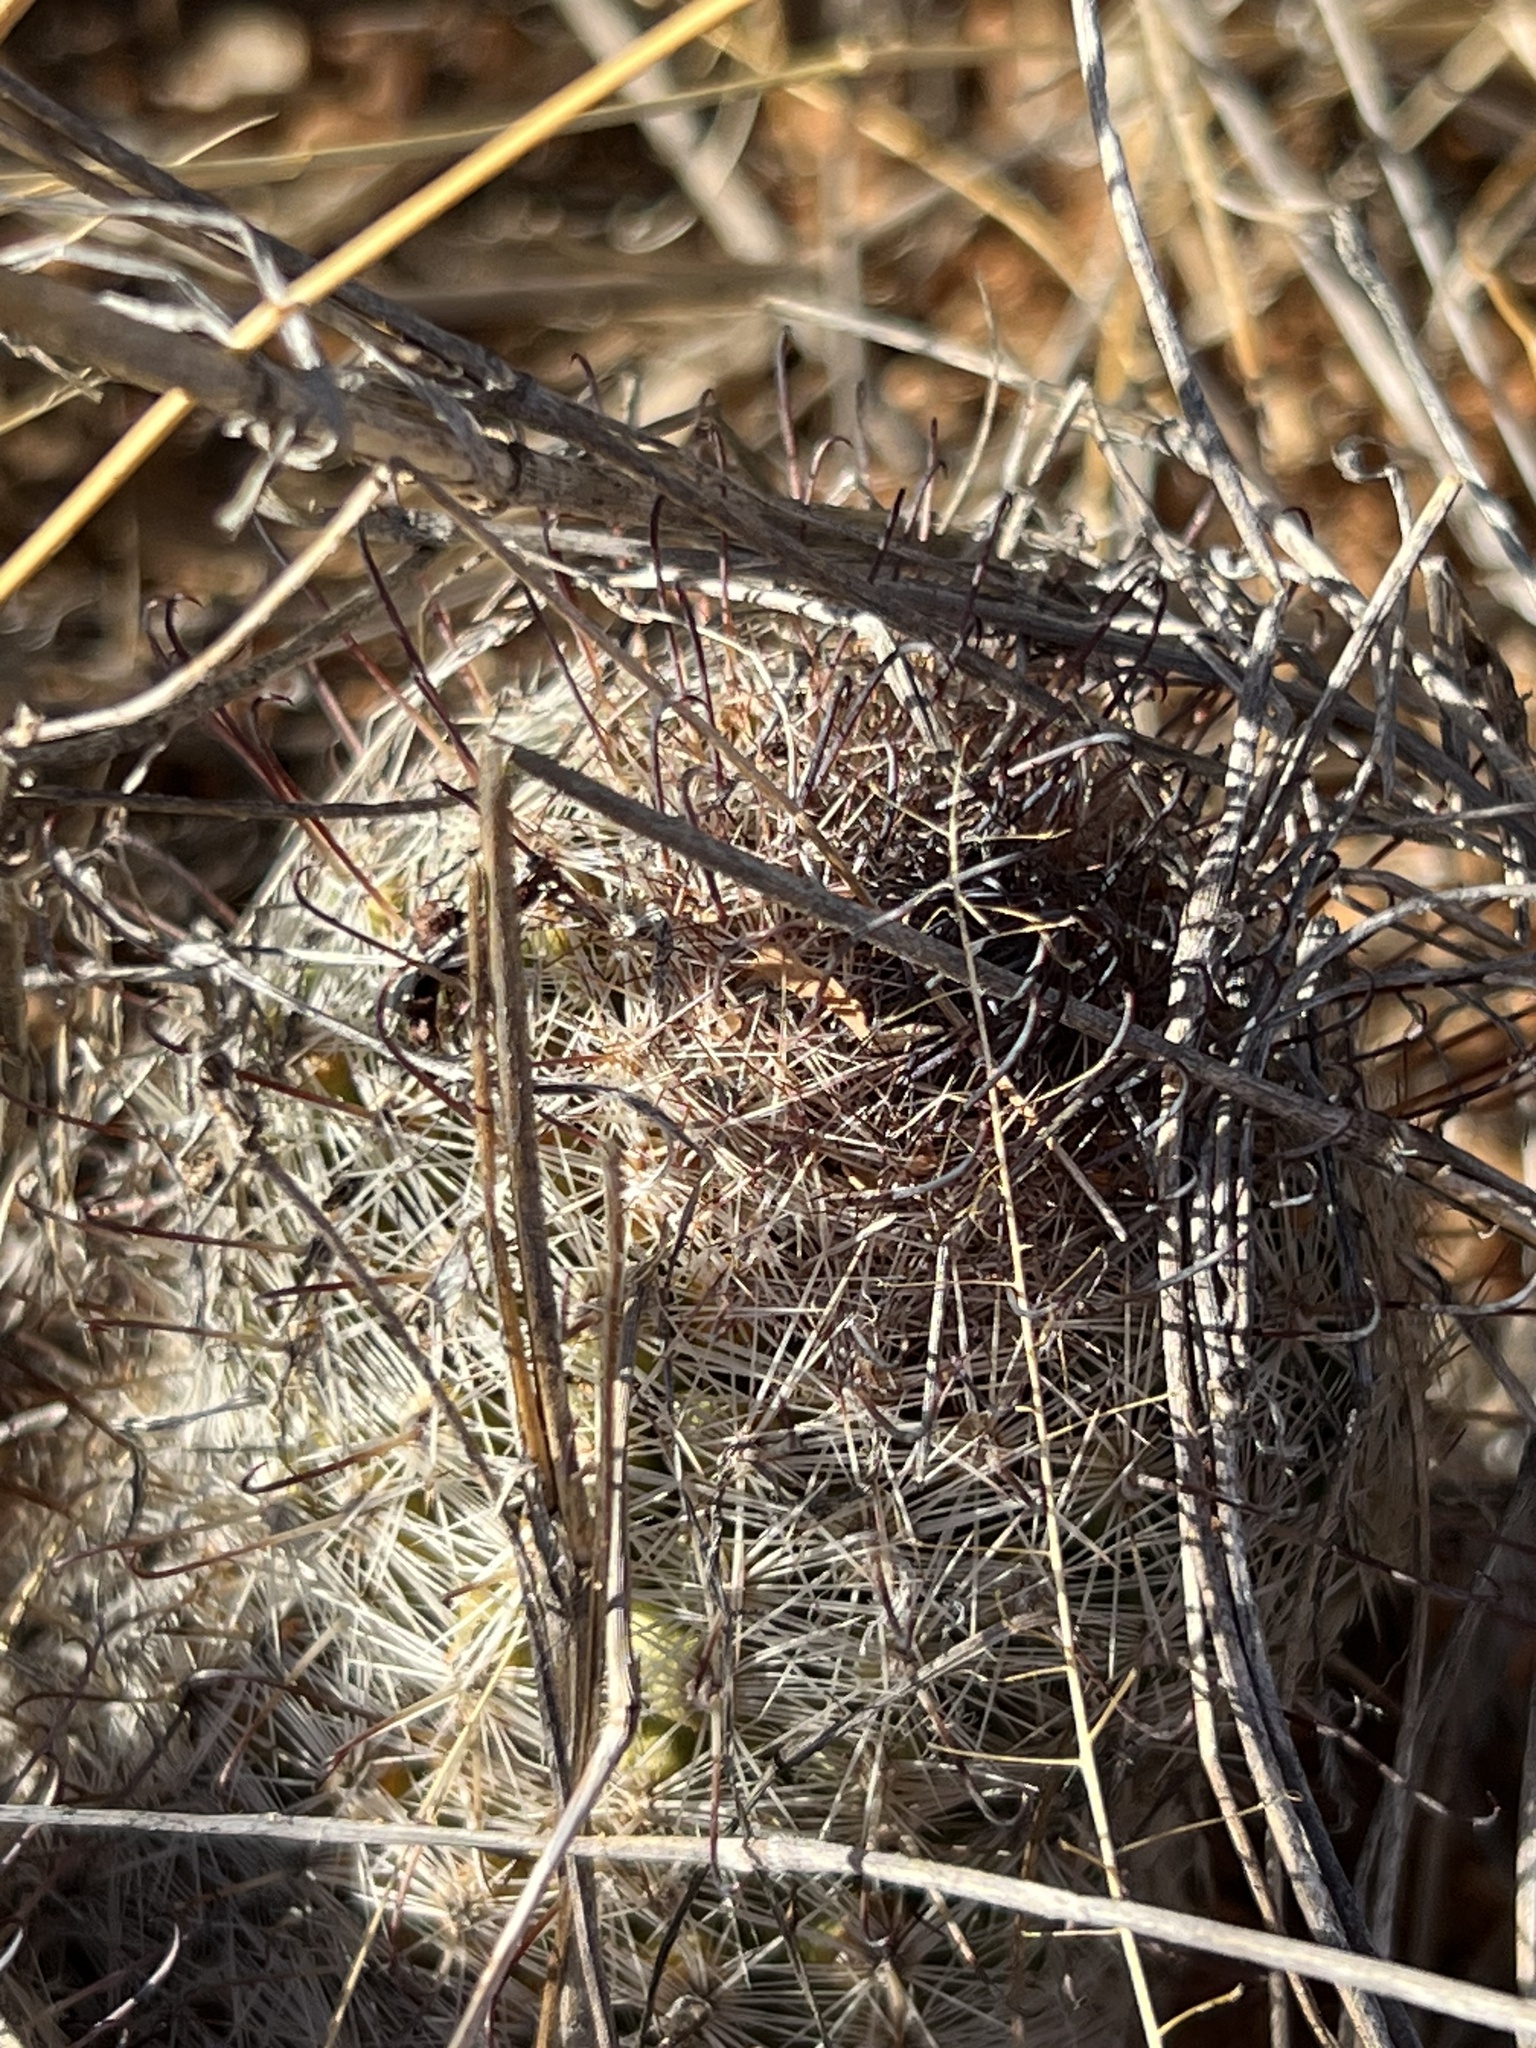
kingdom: Plantae
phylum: Tracheophyta
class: Magnoliopsida
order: Caryophyllales
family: Cactaceae
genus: Cochemiea
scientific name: Cochemiea grahamii
